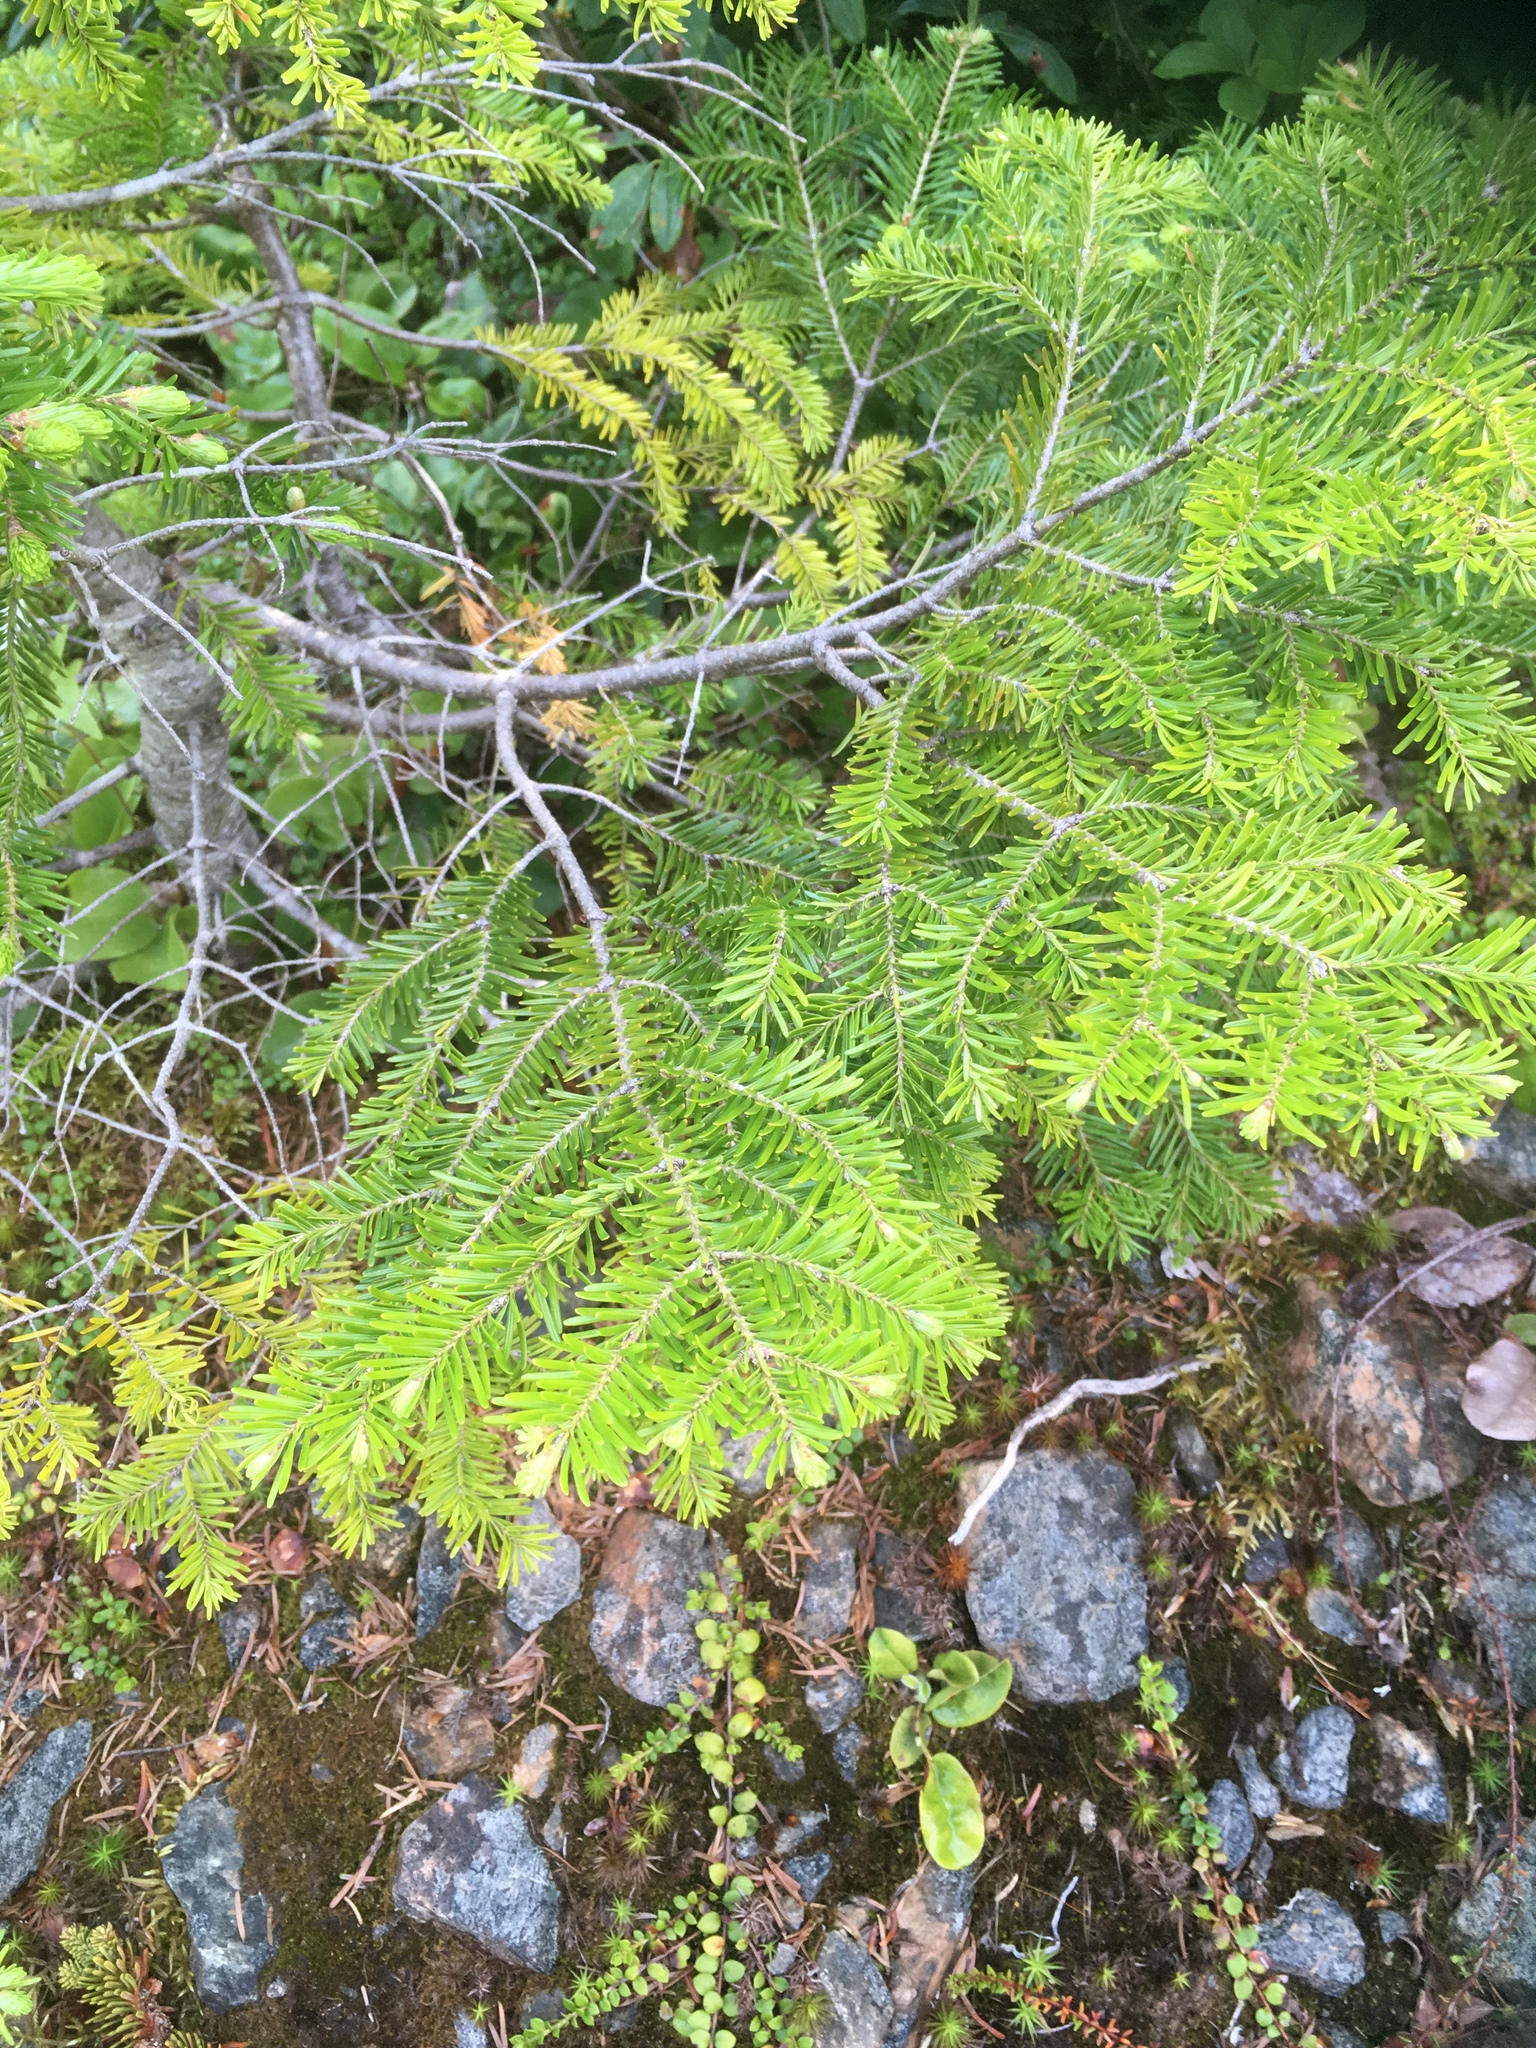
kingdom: Plantae
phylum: Tracheophyta
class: Pinopsida
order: Pinales
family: Pinaceae
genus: Abies
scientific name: Abies balsamea
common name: Balsam fir
